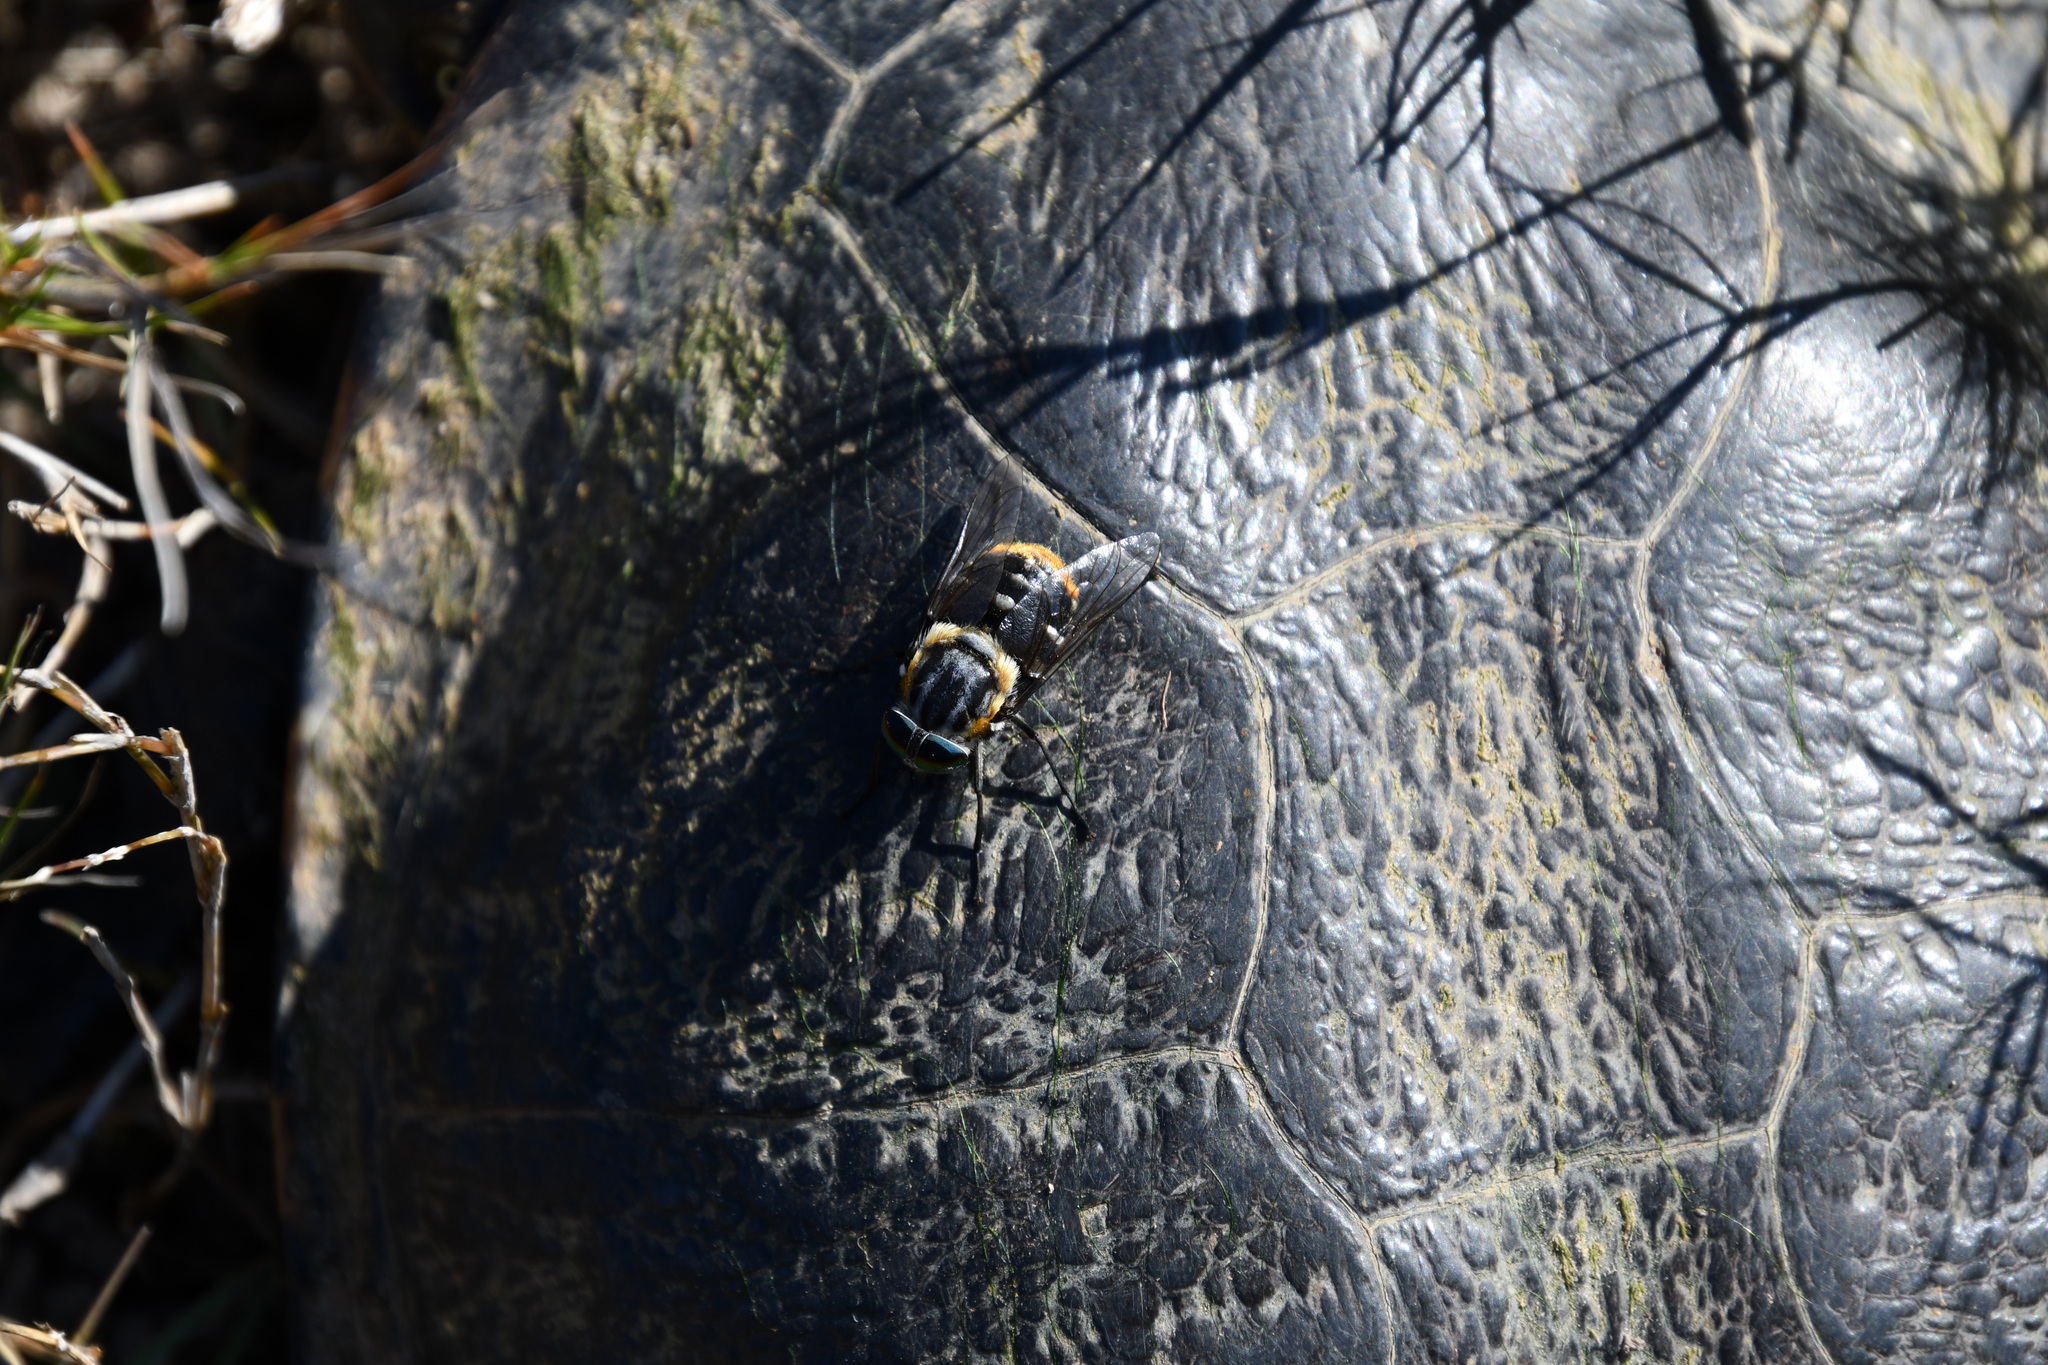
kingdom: Animalia
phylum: Arthropoda
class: Insecta
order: Diptera
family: Tabanidae
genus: Scaptia
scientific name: Scaptia auriflua
